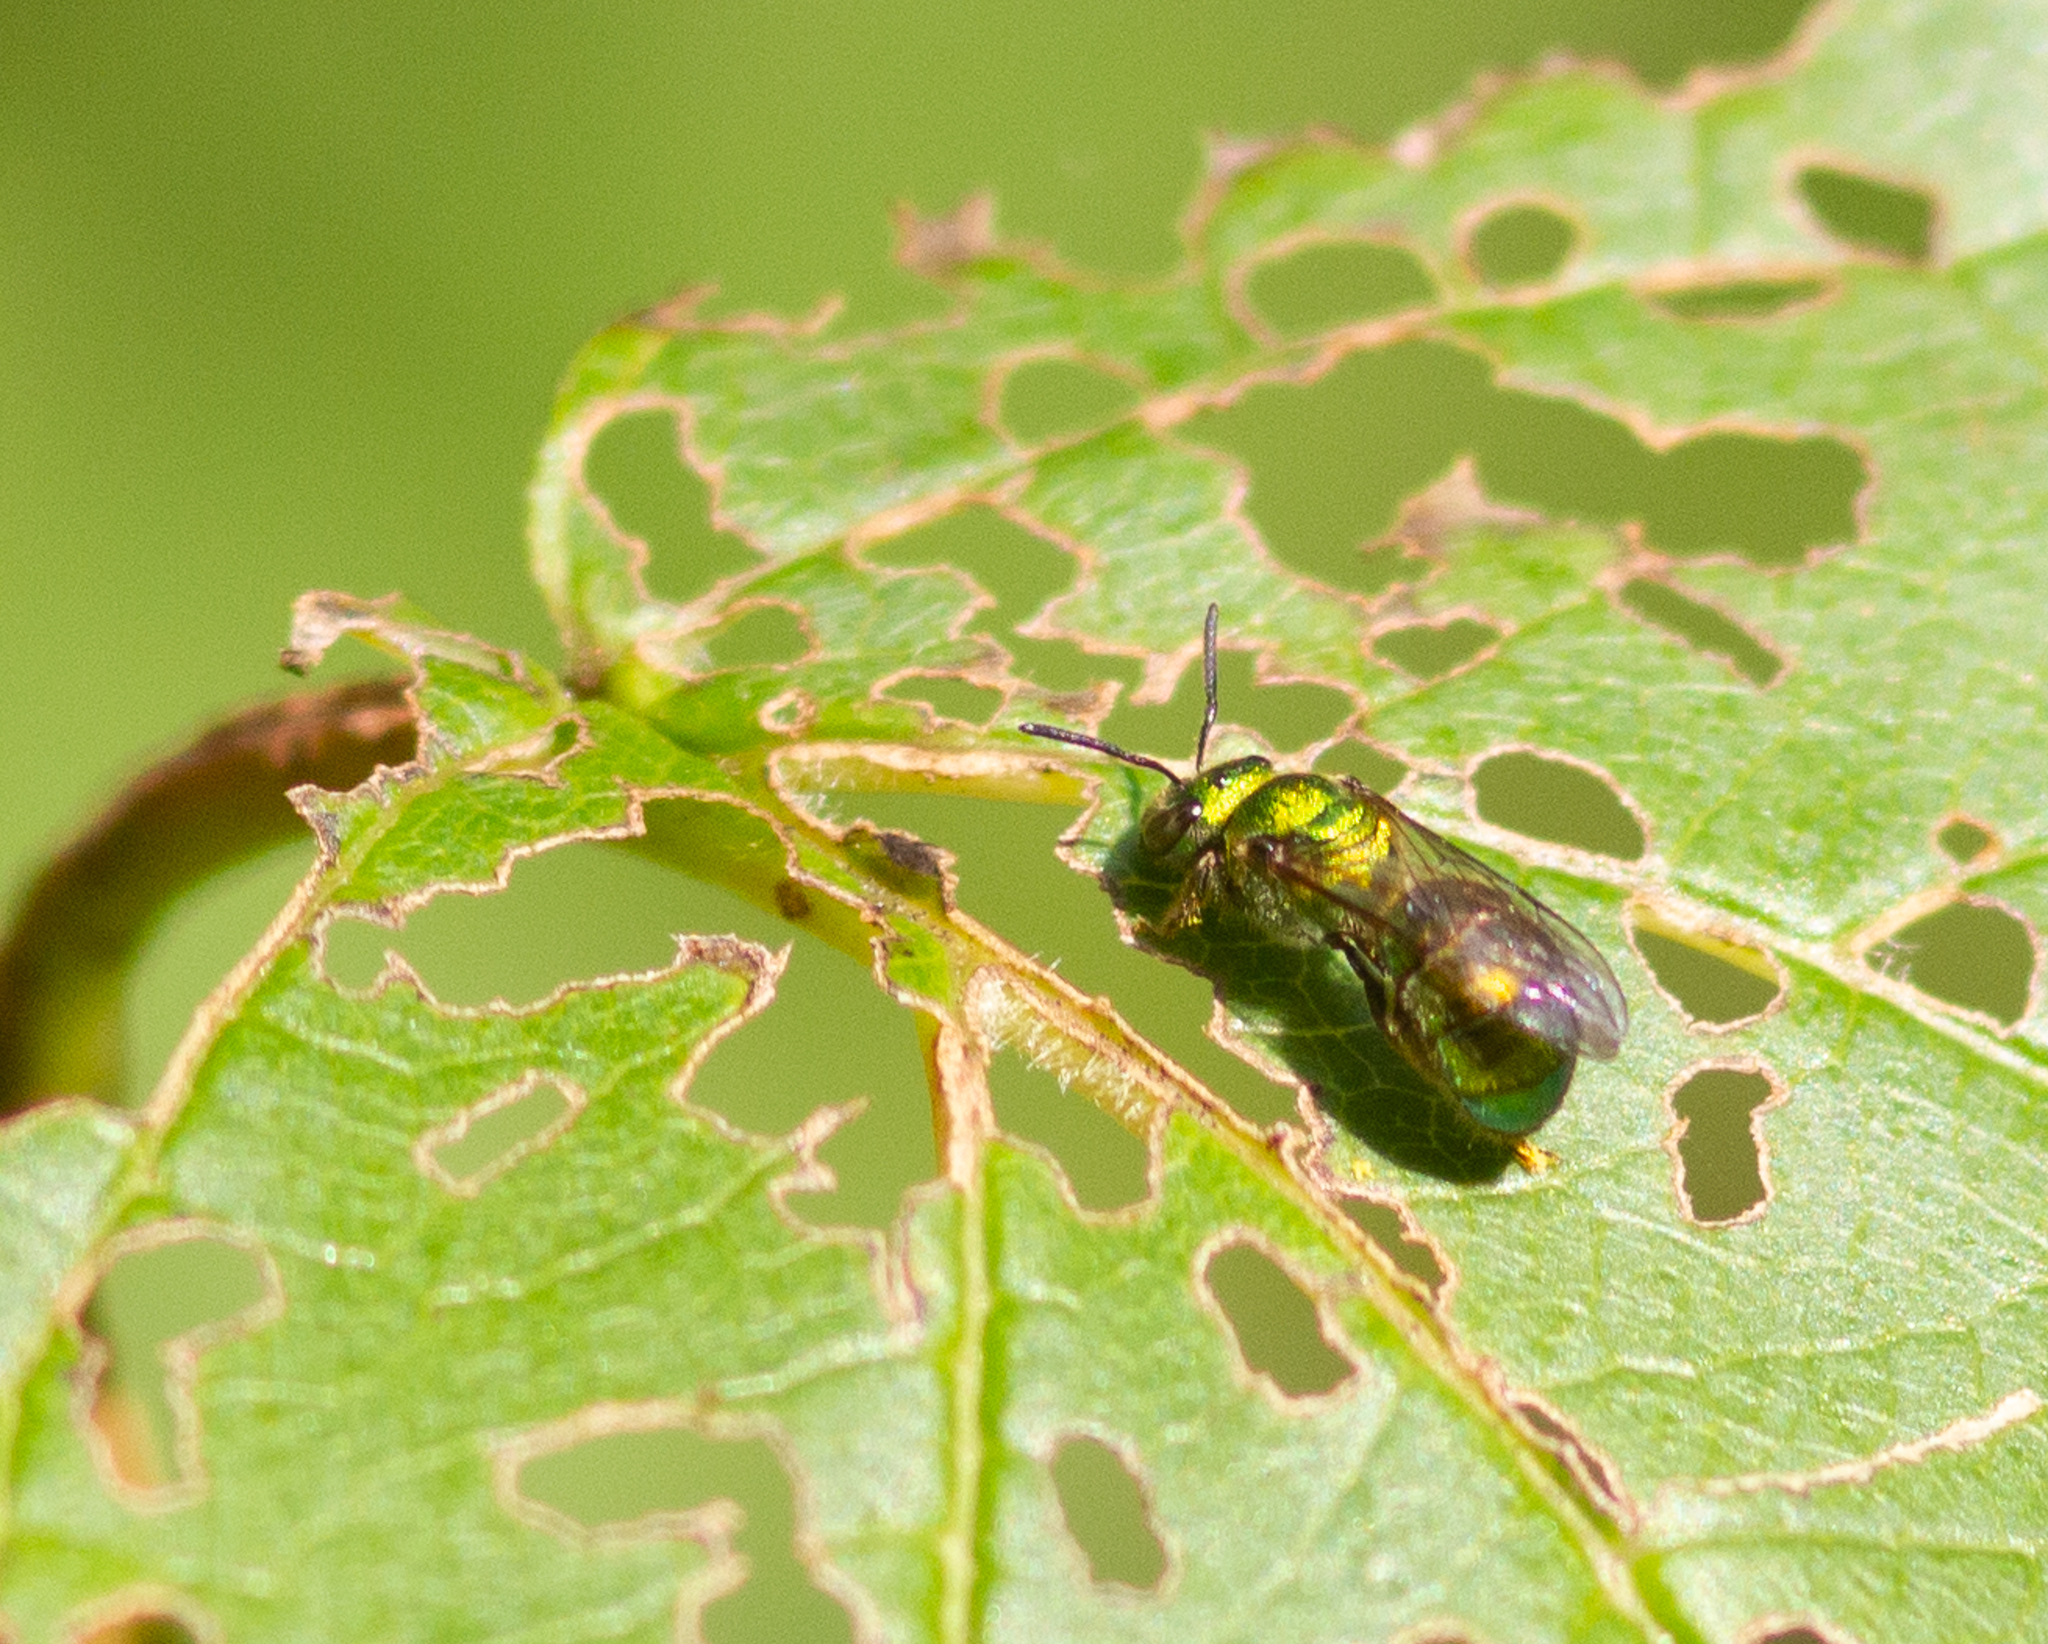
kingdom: Animalia
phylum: Arthropoda
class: Insecta
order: Hymenoptera
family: Halictidae
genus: Augochlora
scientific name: Augochlora pura
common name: Pure green sweat bee
